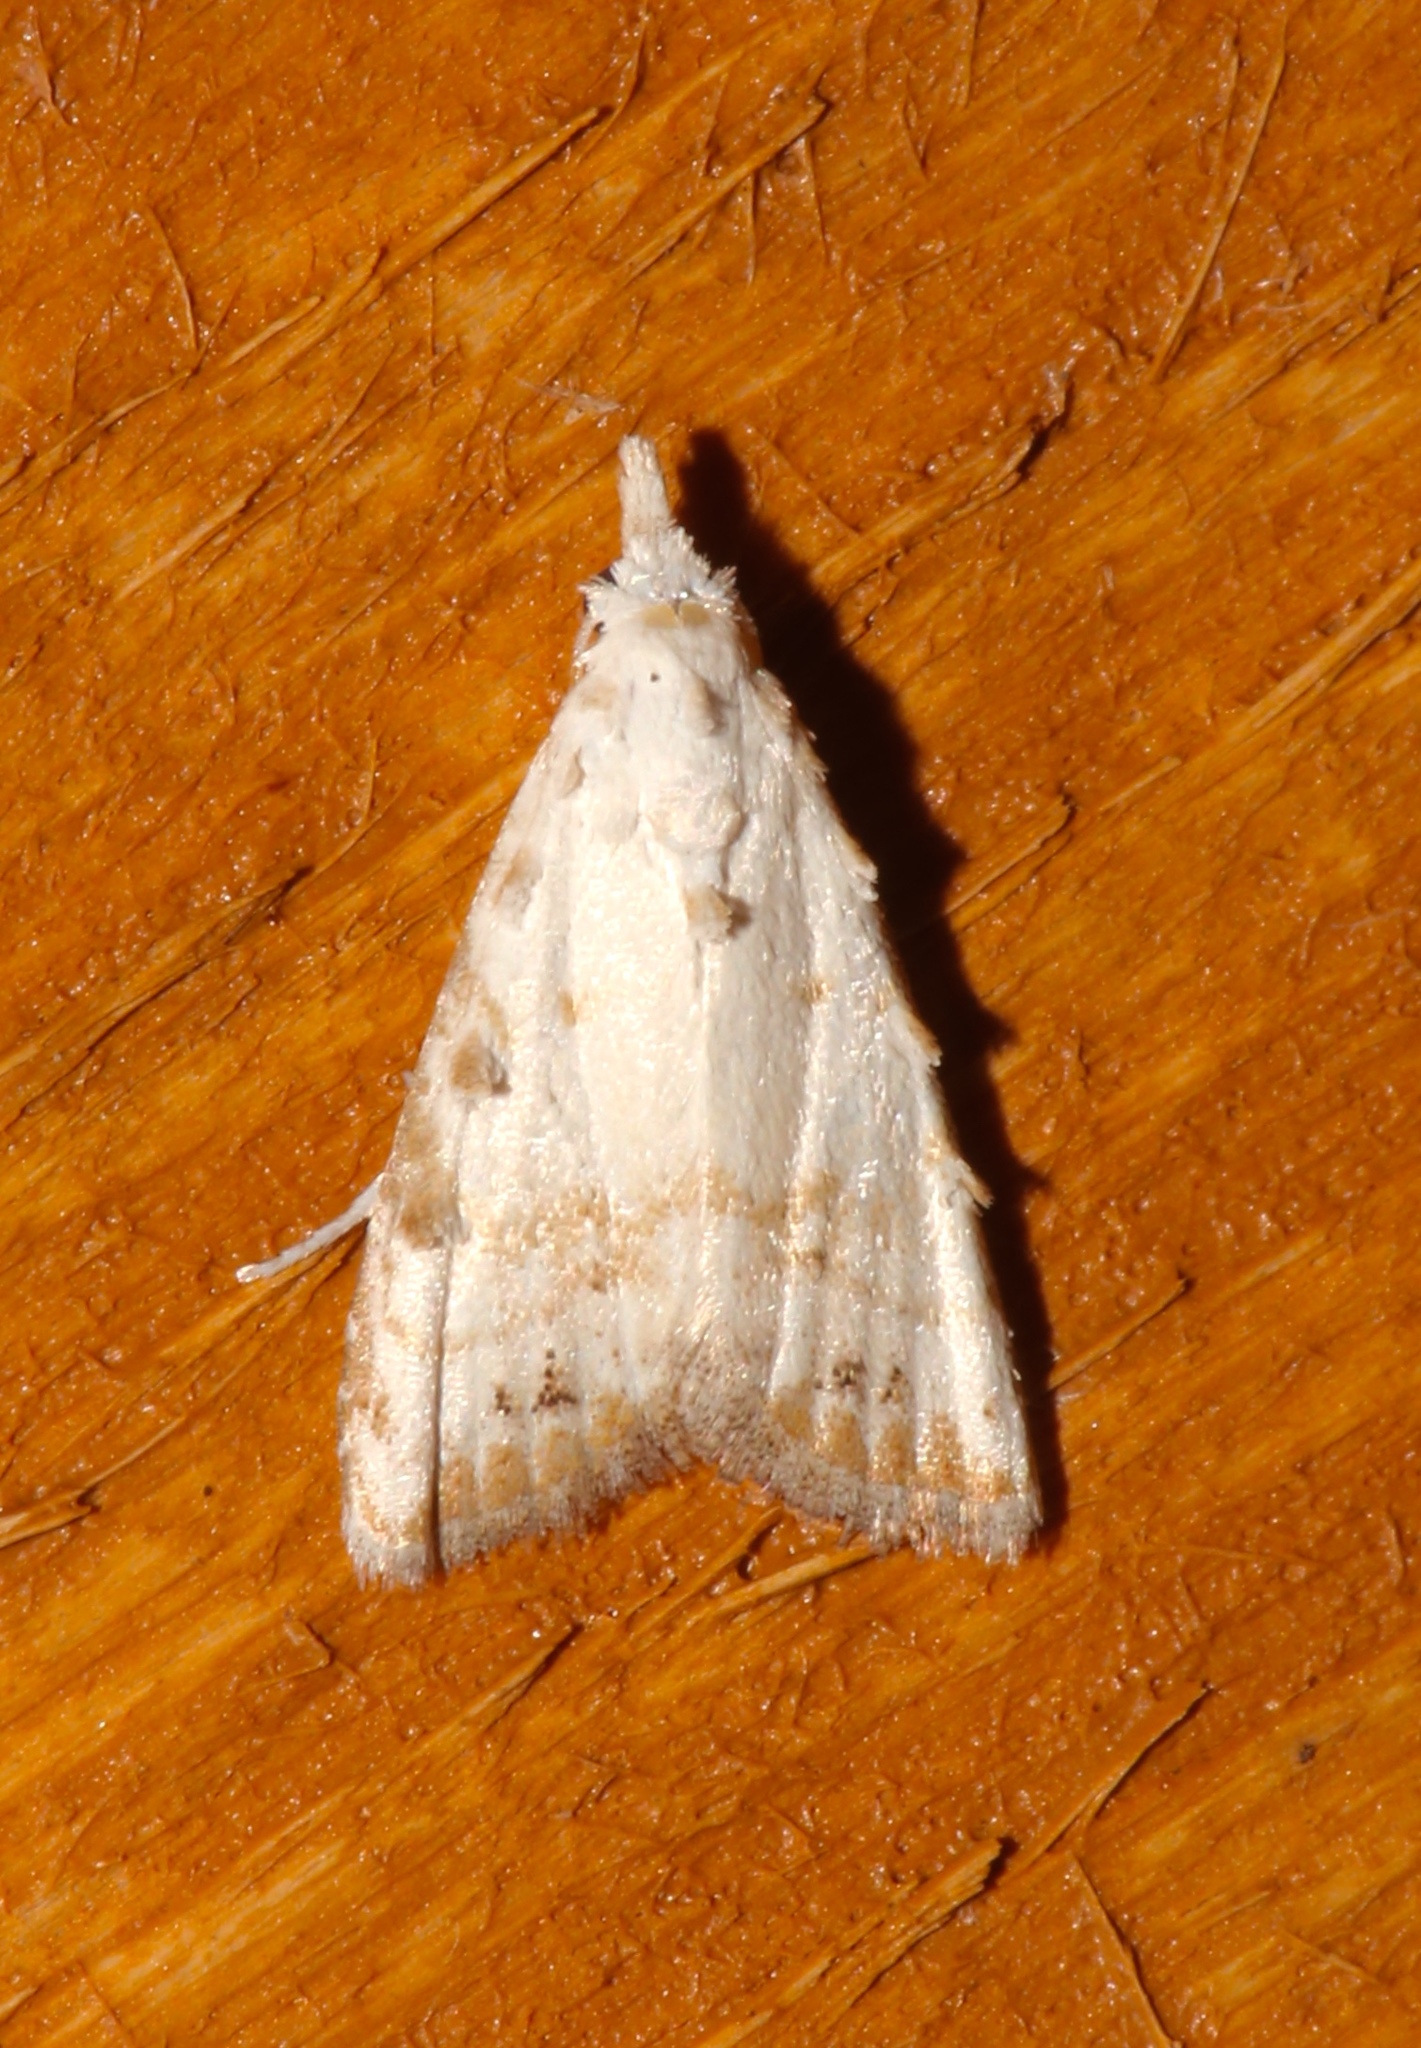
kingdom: Animalia
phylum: Arthropoda
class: Insecta
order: Lepidoptera
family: Nolidae
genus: Nola
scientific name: Nola cereella
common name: Sorghum webworm moth
